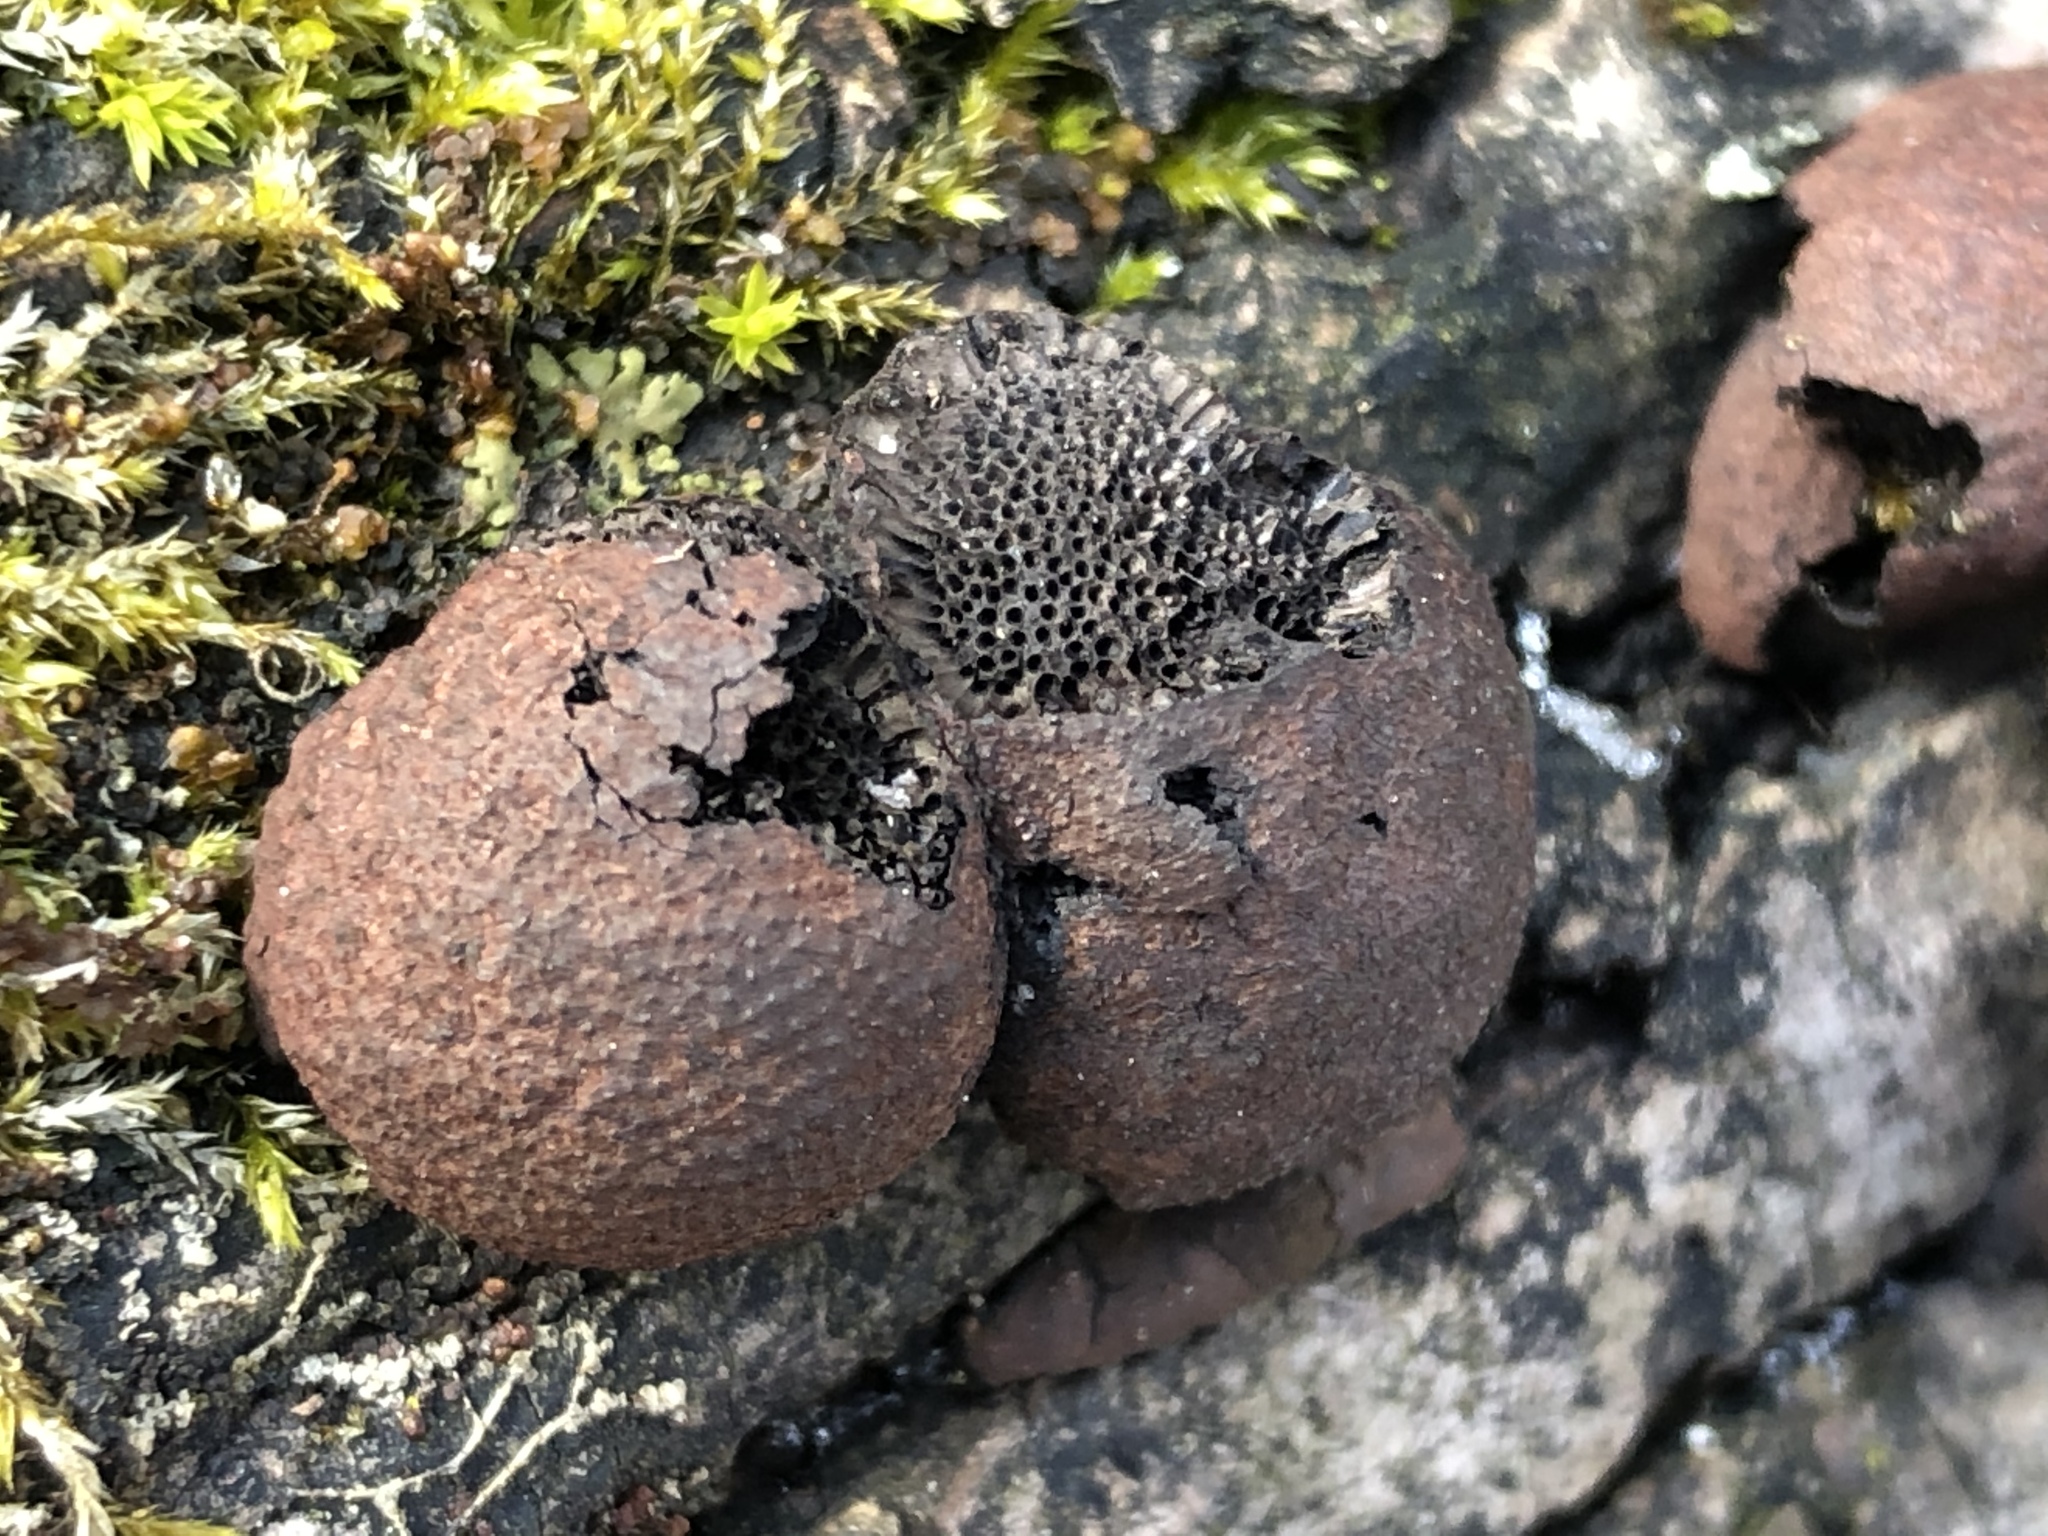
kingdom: Fungi
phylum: Ascomycota
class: Sordariomycetes
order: Xylariales
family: Hypoxylaceae
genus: Daldinia
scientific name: Daldinia childiae
